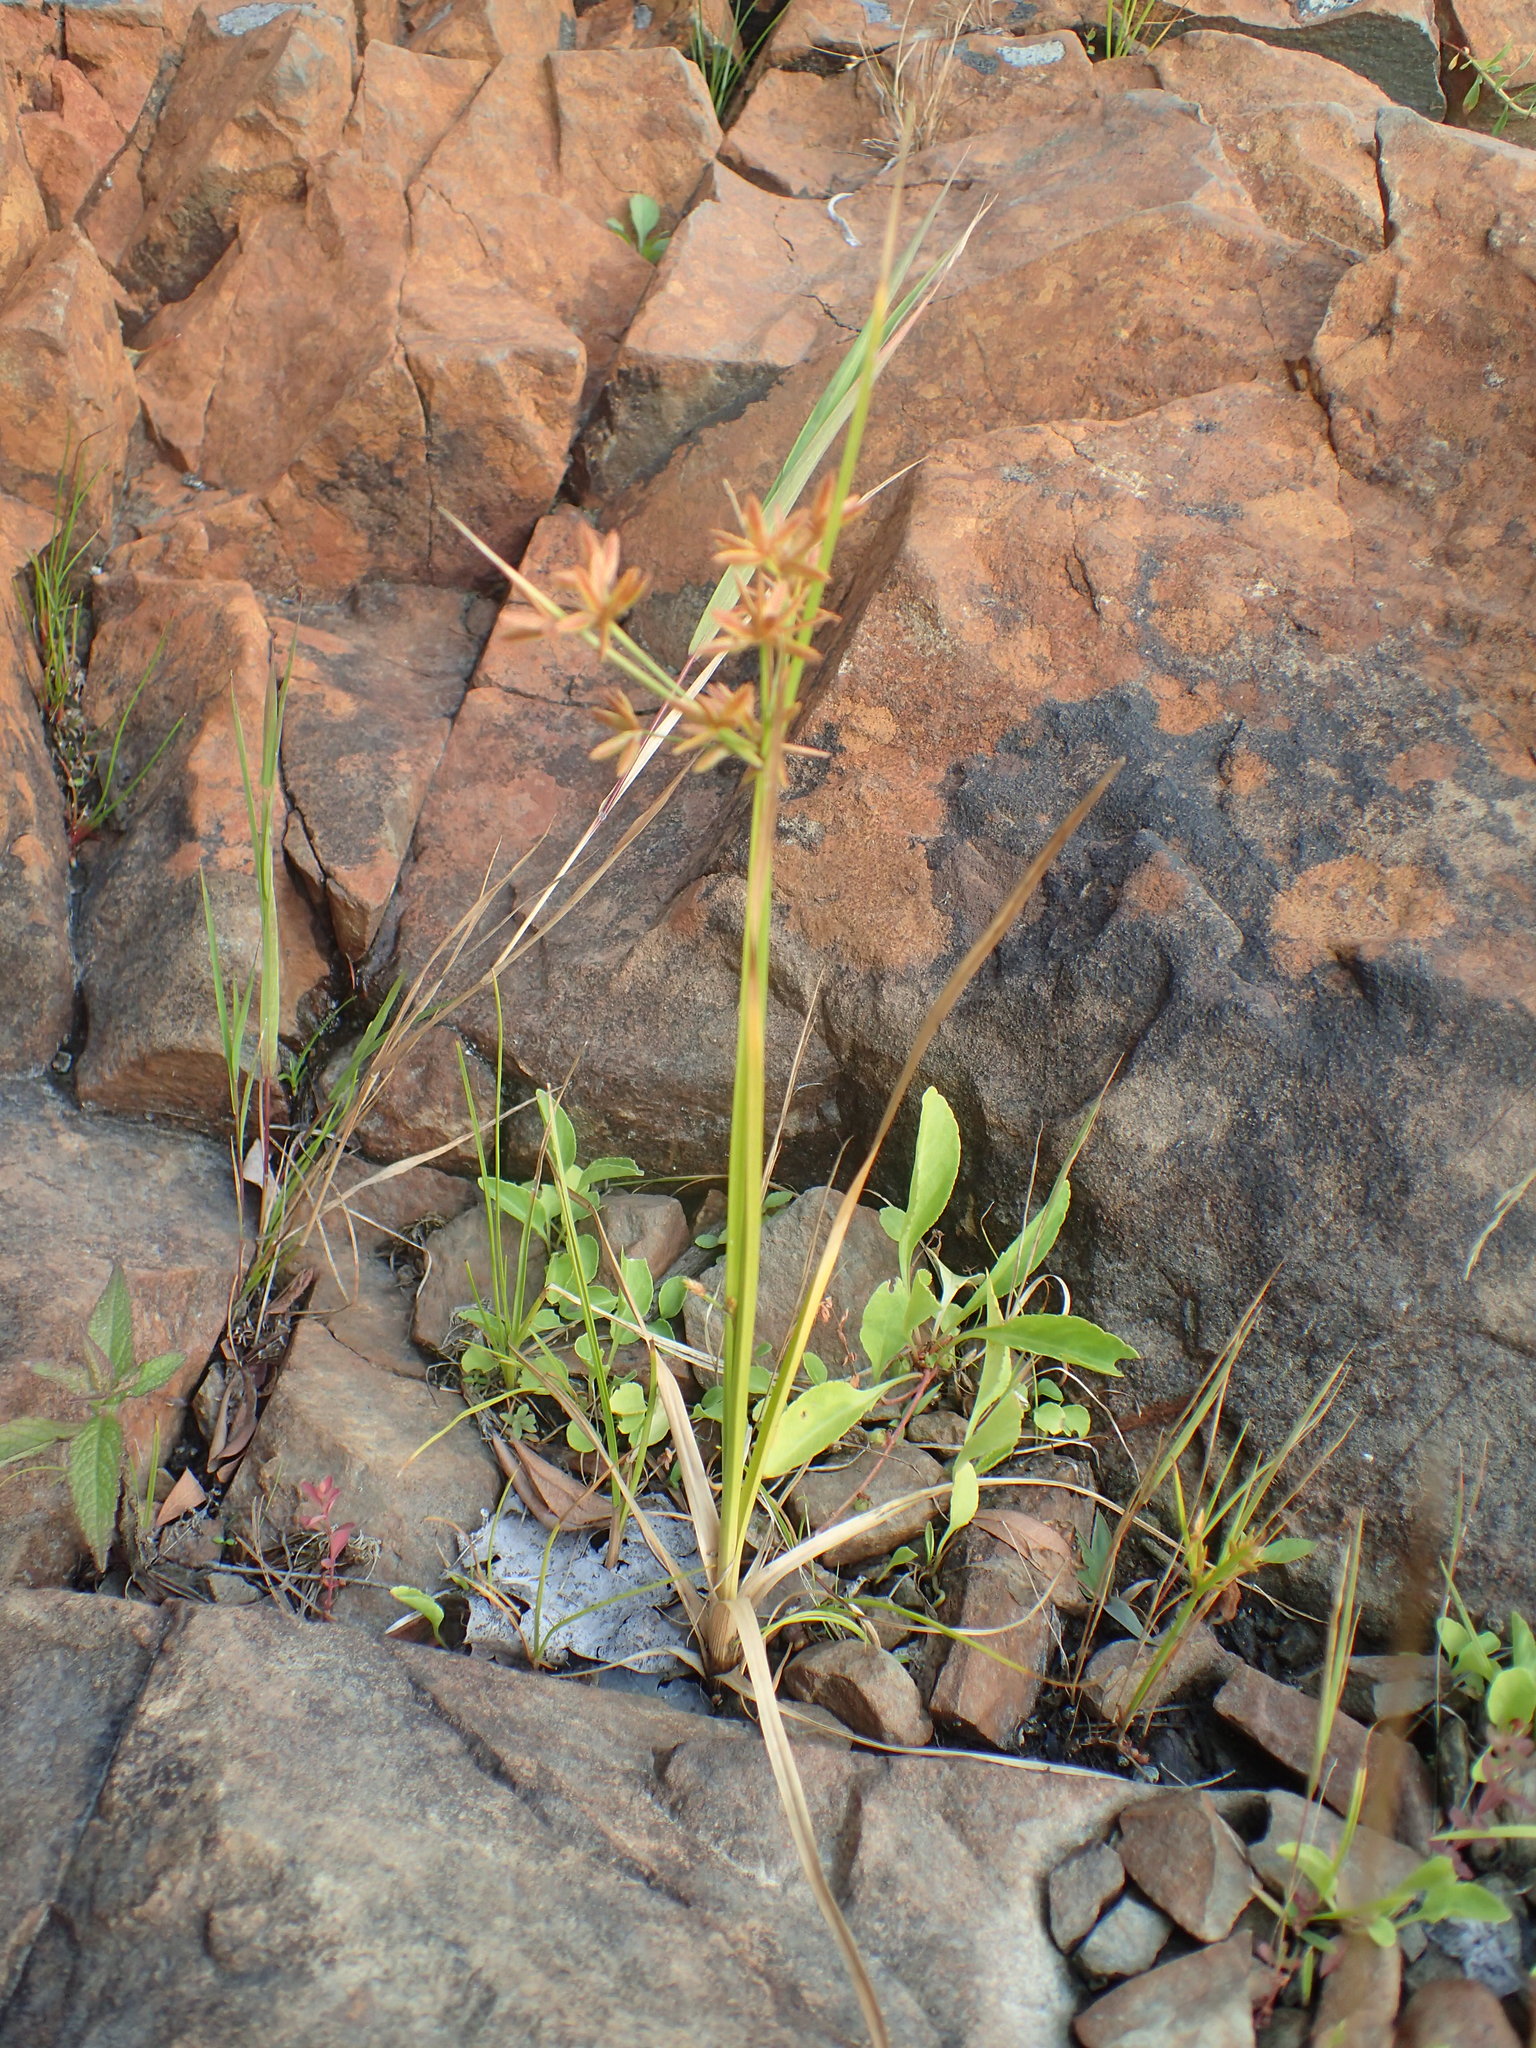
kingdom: Plantae
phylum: Tracheophyta
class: Liliopsida
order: Poales
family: Cyperaceae
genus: Cyperus
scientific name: Cyperus dentatus
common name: Dentate umbrella sedge
